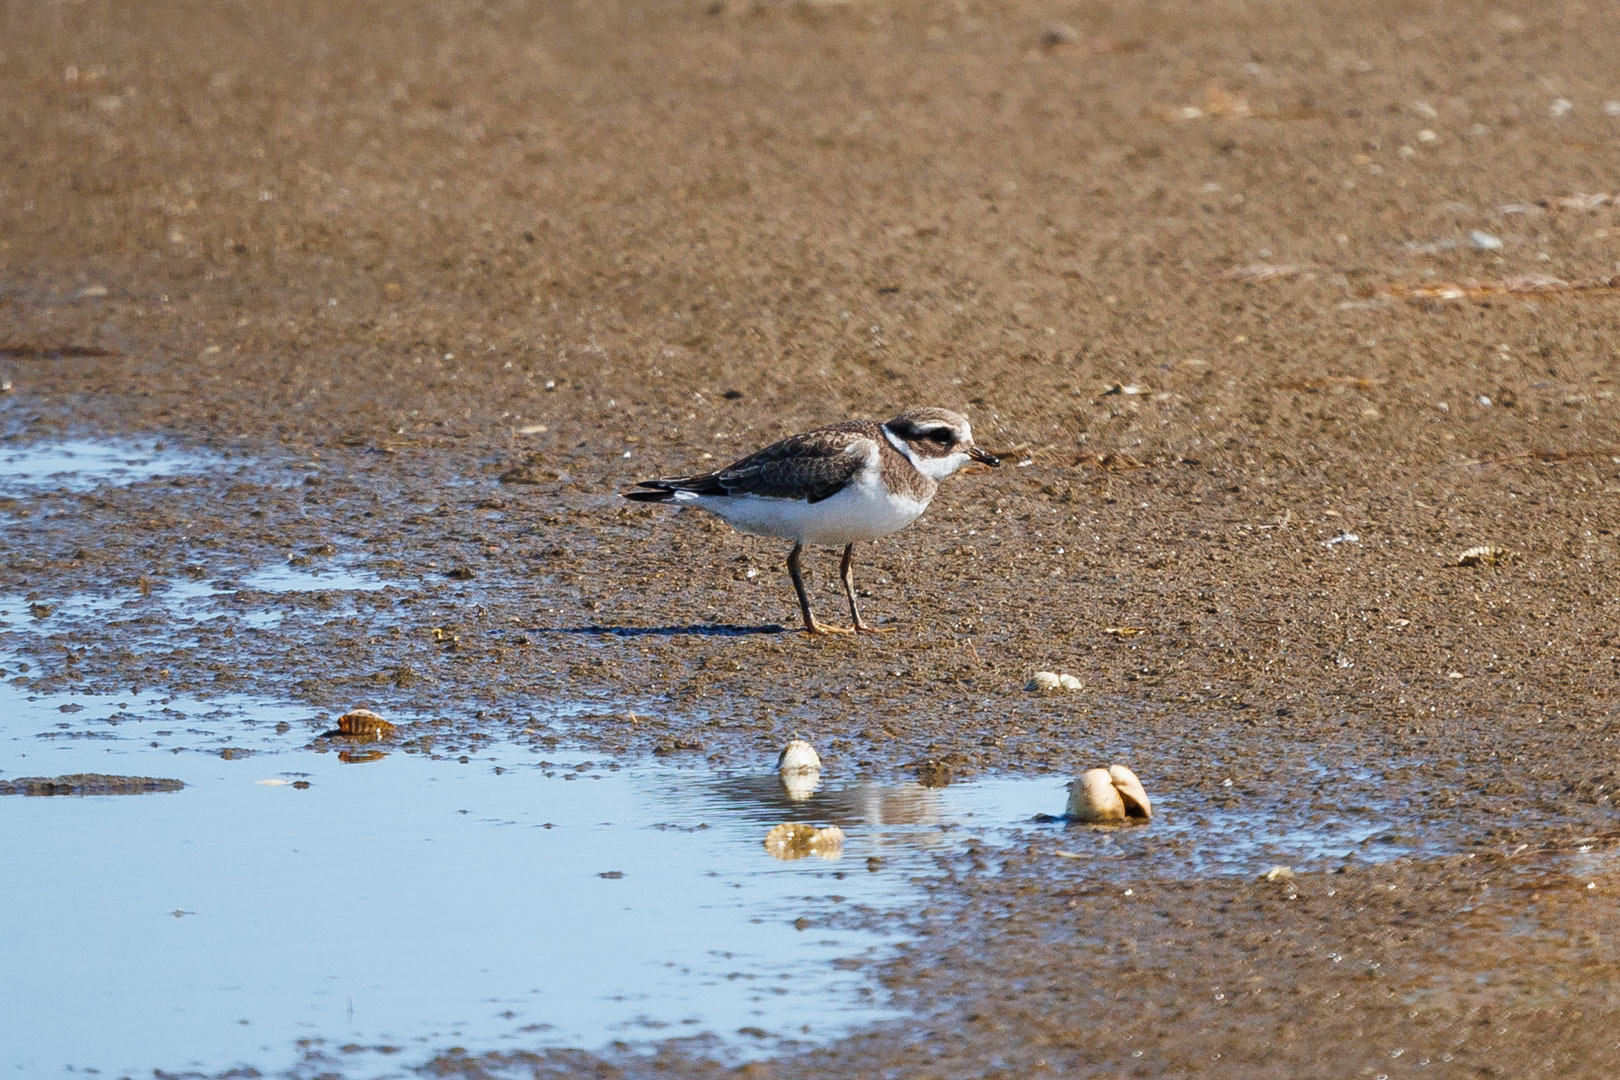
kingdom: Animalia
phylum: Chordata
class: Aves
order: Charadriiformes
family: Charadriidae
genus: Charadrius
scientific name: Charadrius hiaticula
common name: Common ringed plover
